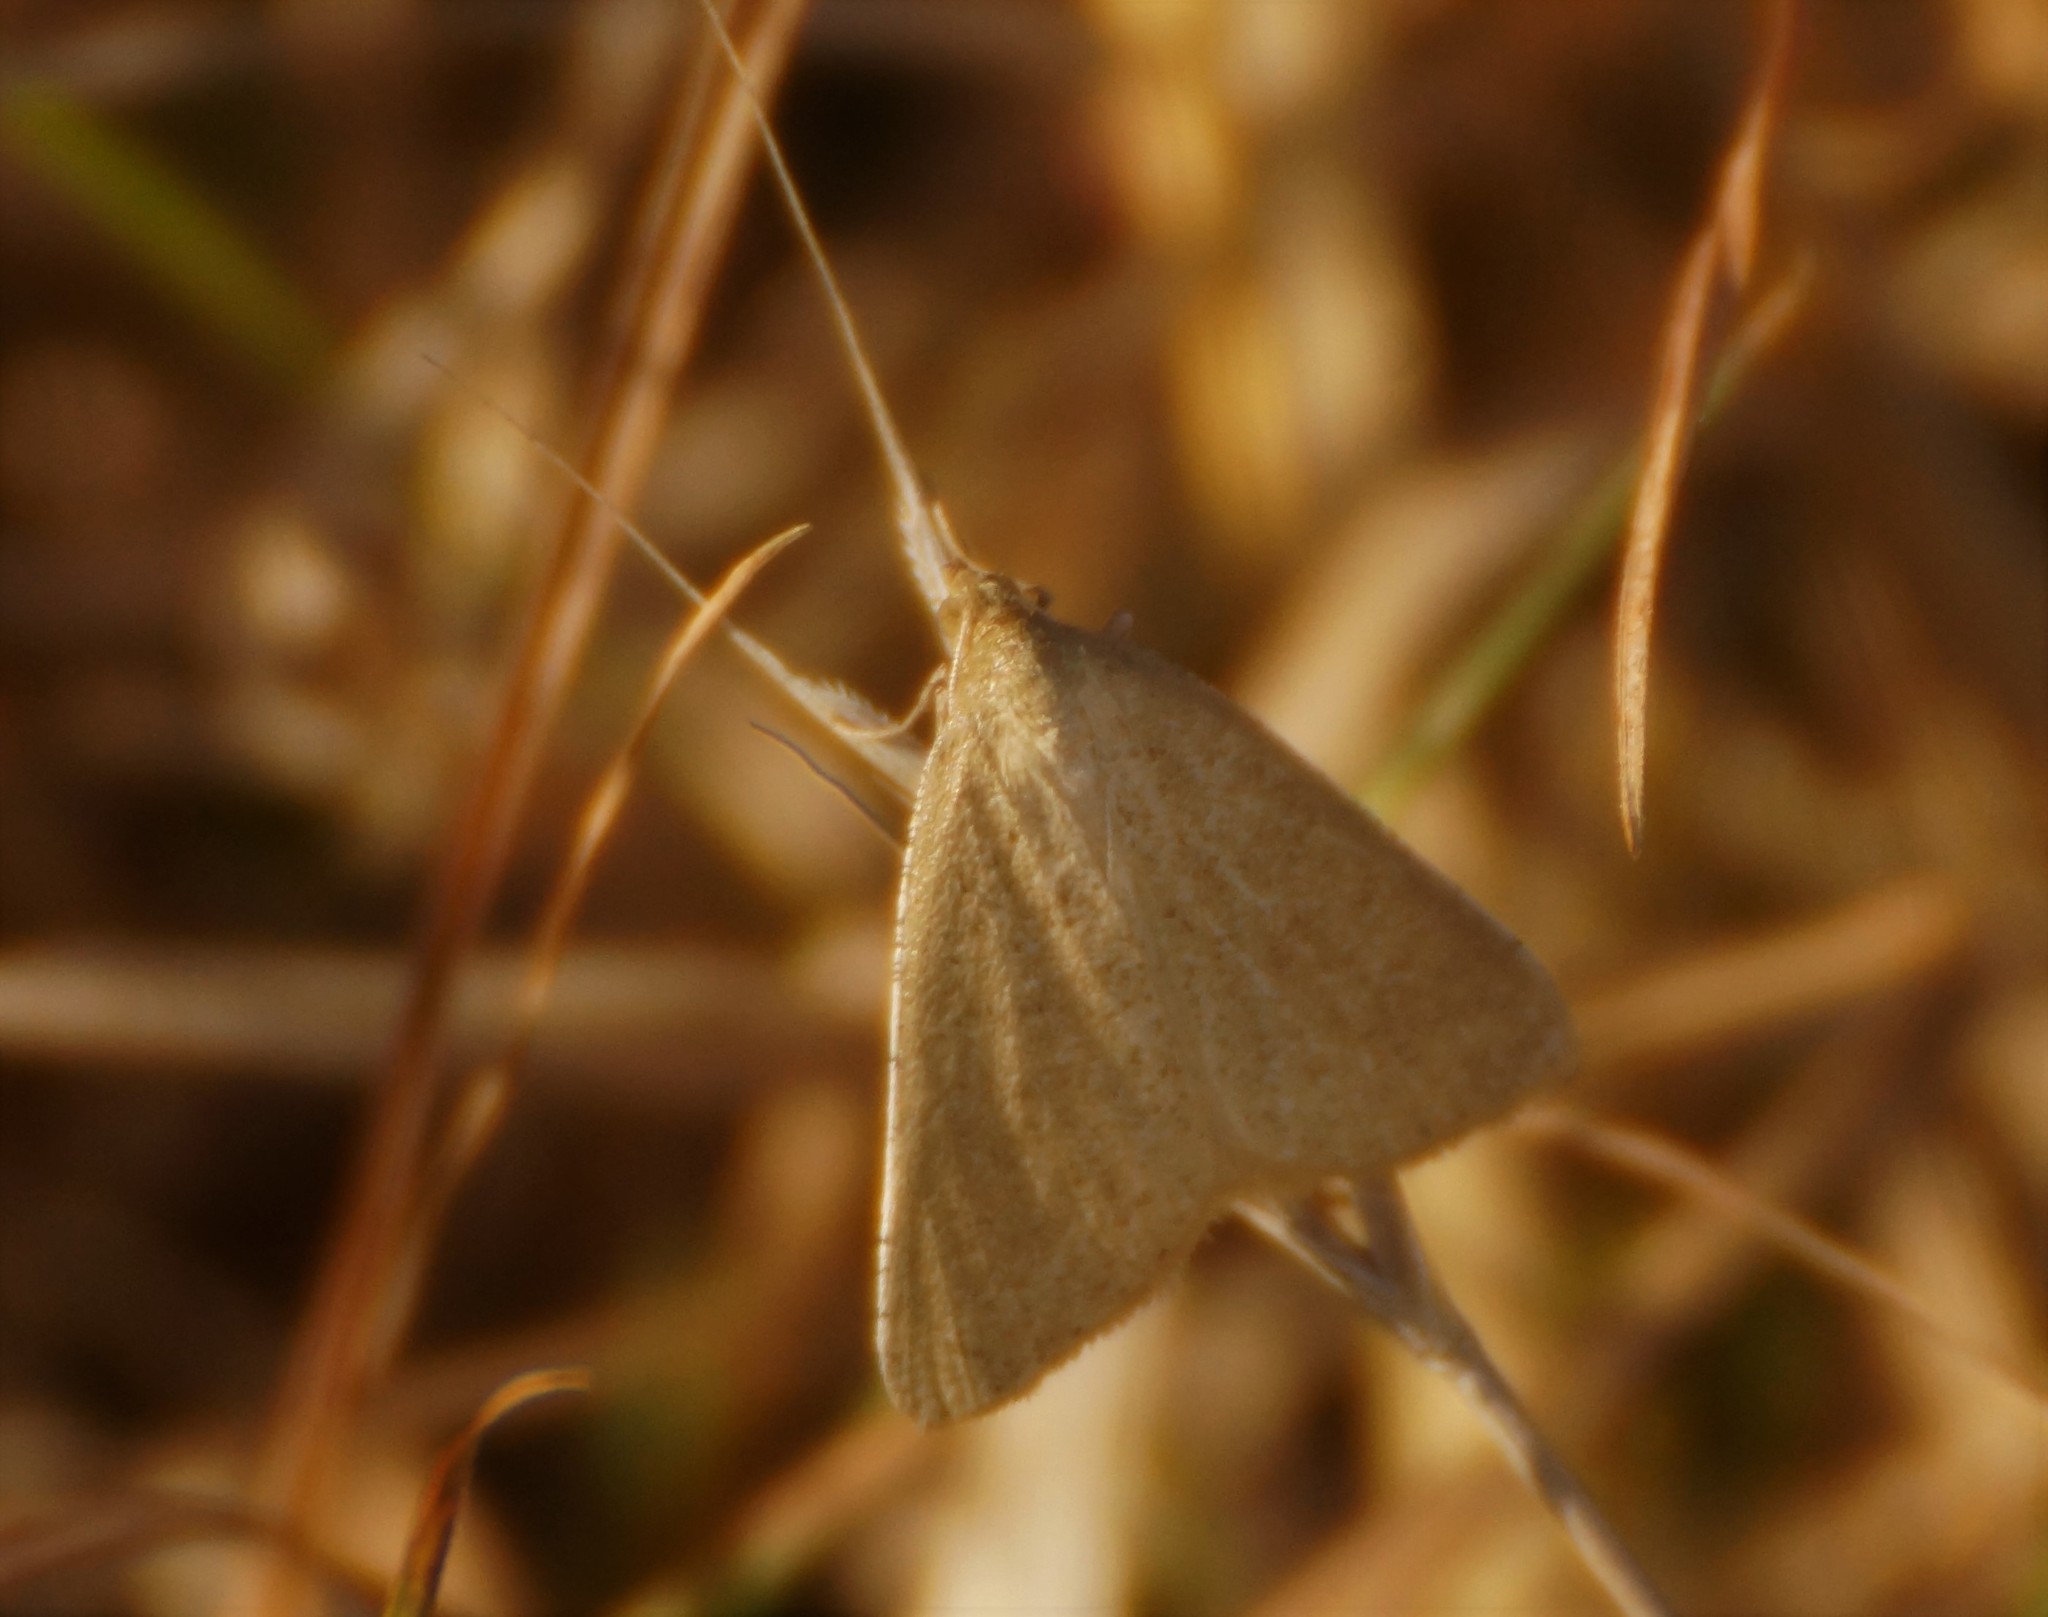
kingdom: Animalia
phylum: Arthropoda
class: Insecta
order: Lepidoptera
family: Geometridae
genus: Neritodes
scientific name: Neritodes verrucata
